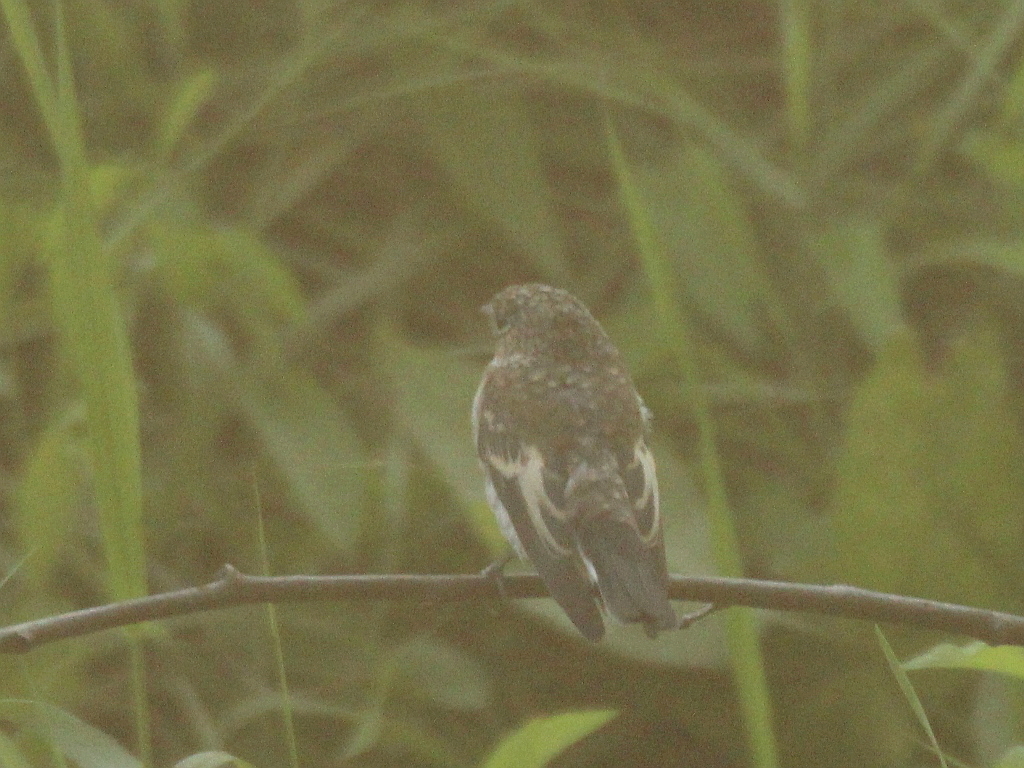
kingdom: Animalia
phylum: Chordata
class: Aves
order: Passeriformes
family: Muscicapidae
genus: Ficedula
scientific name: Ficedula hypoleuca
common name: European pied flycatcher
